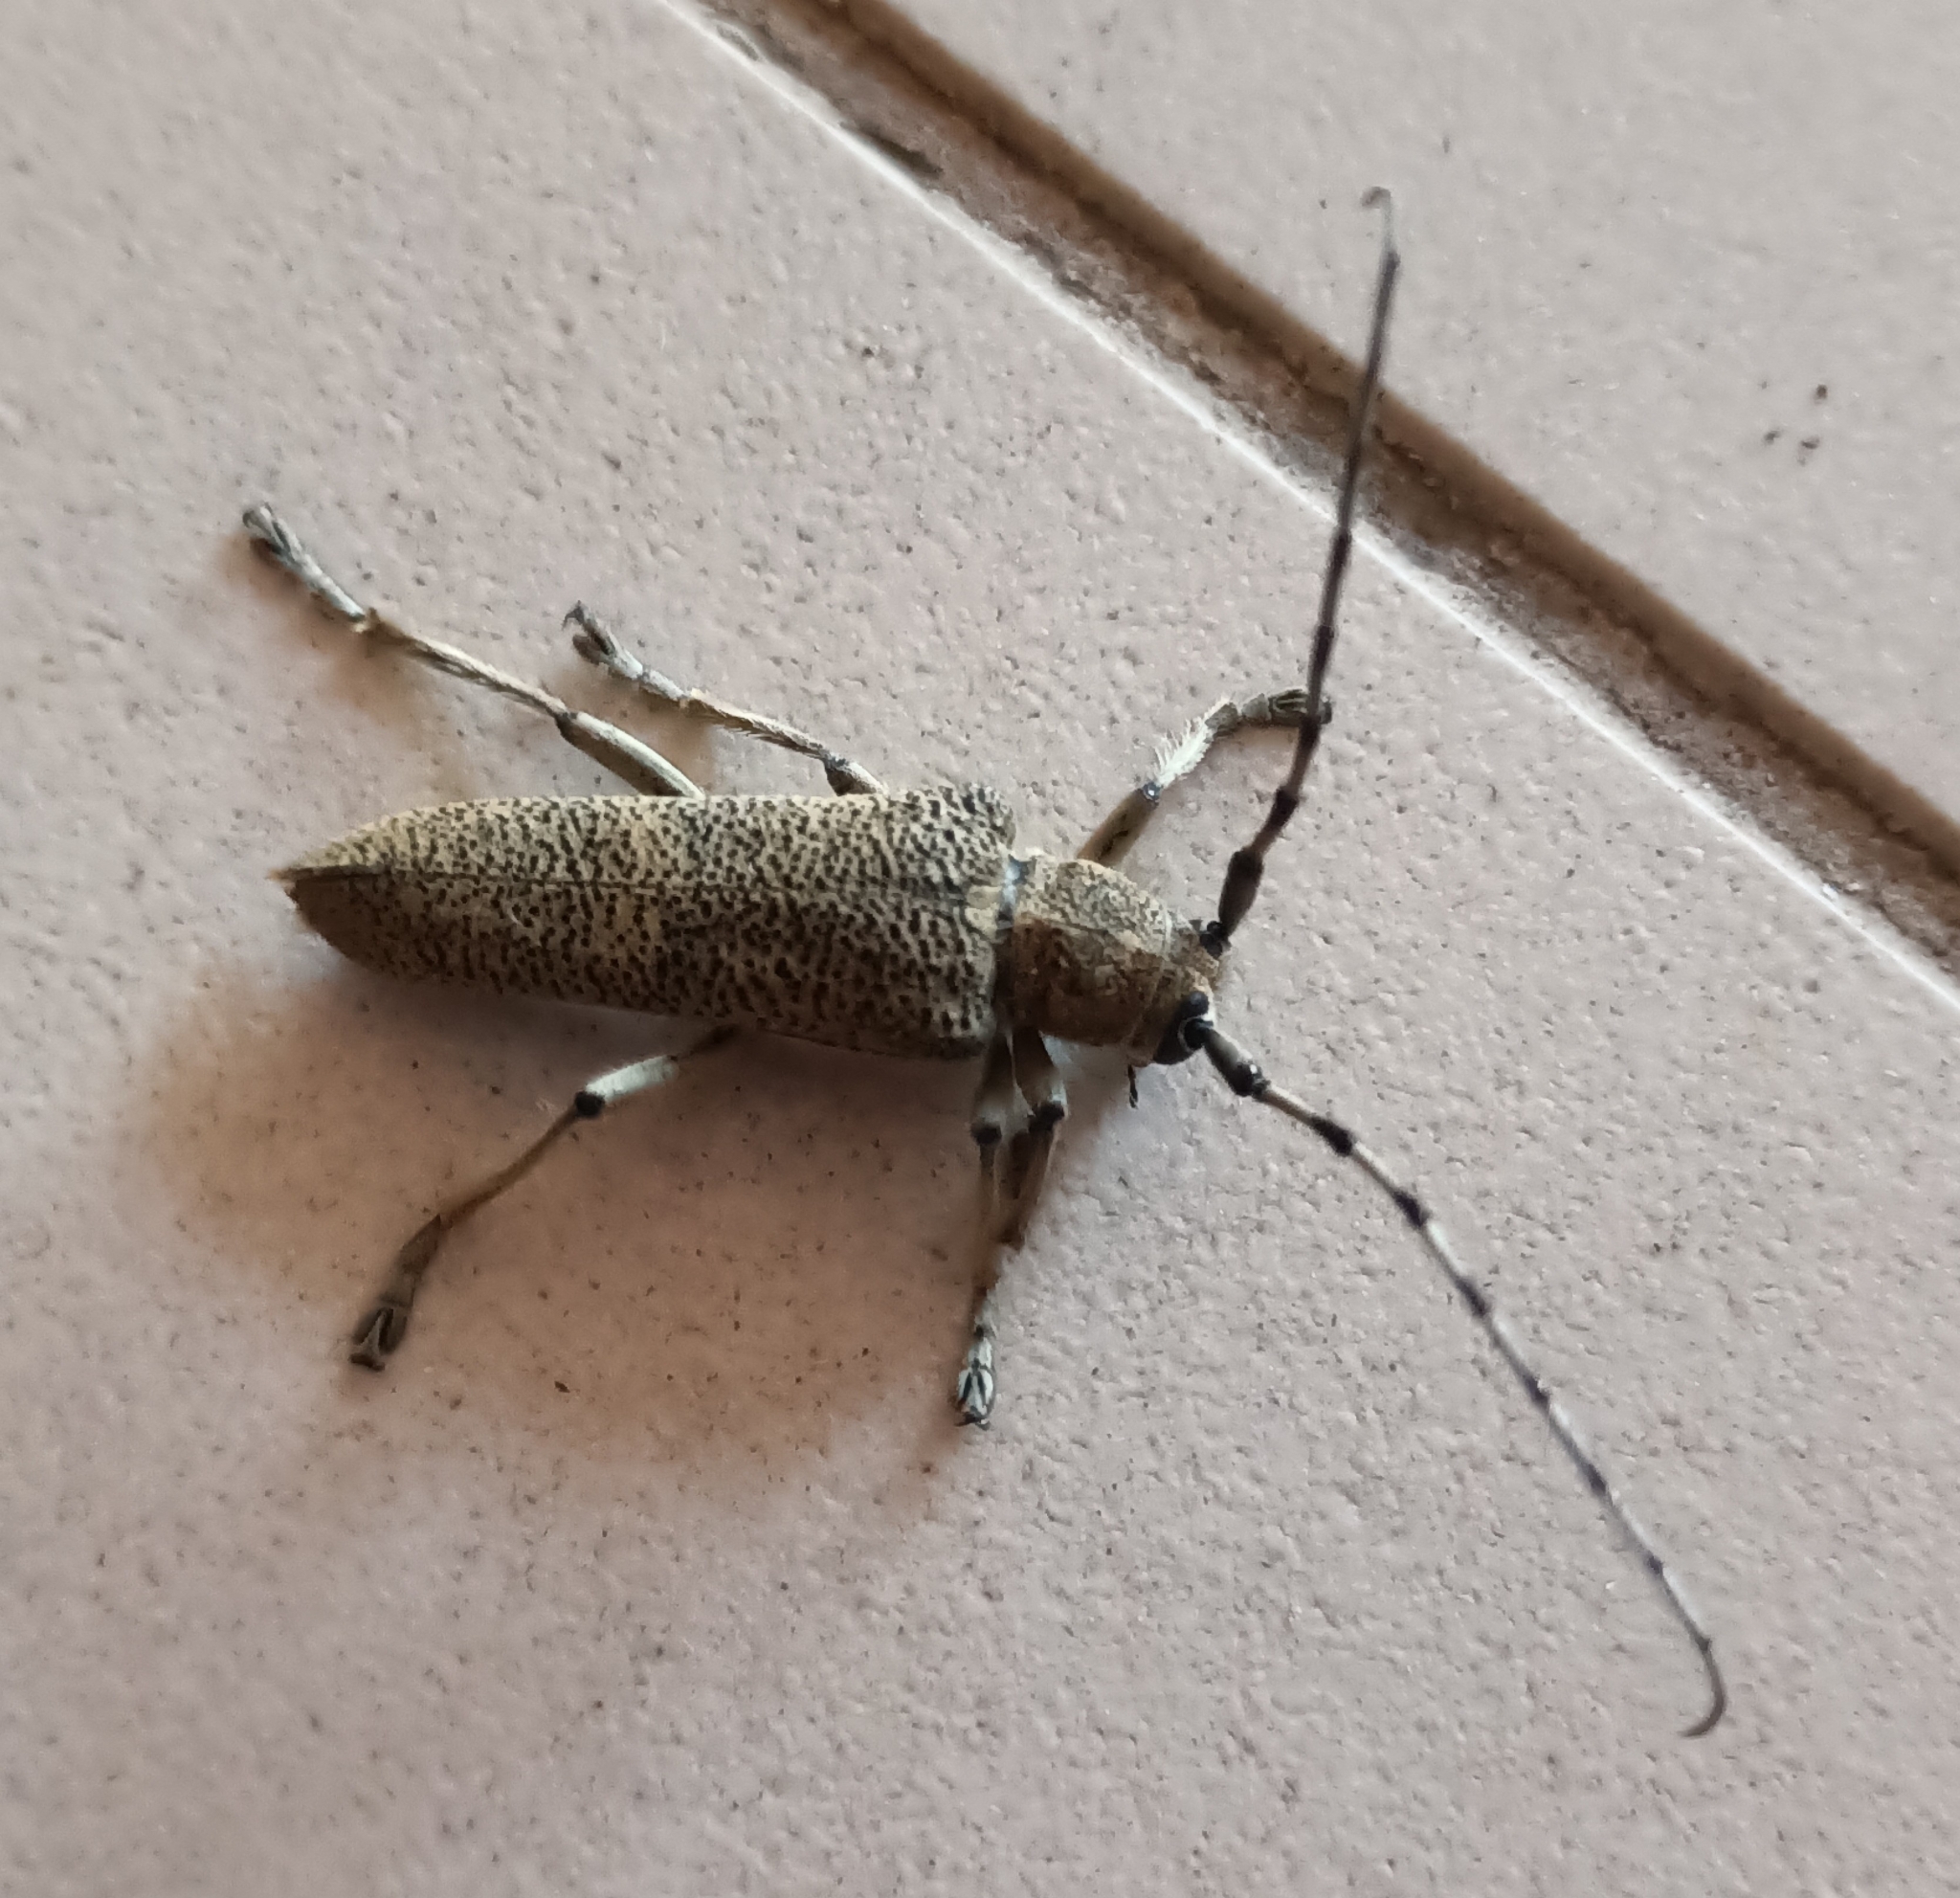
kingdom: Animalia
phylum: Arthropoda
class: Insecta
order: Coleoptera
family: Cerambycidae
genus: Saperda
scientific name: Saperda carcharias
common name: Poplar borer
